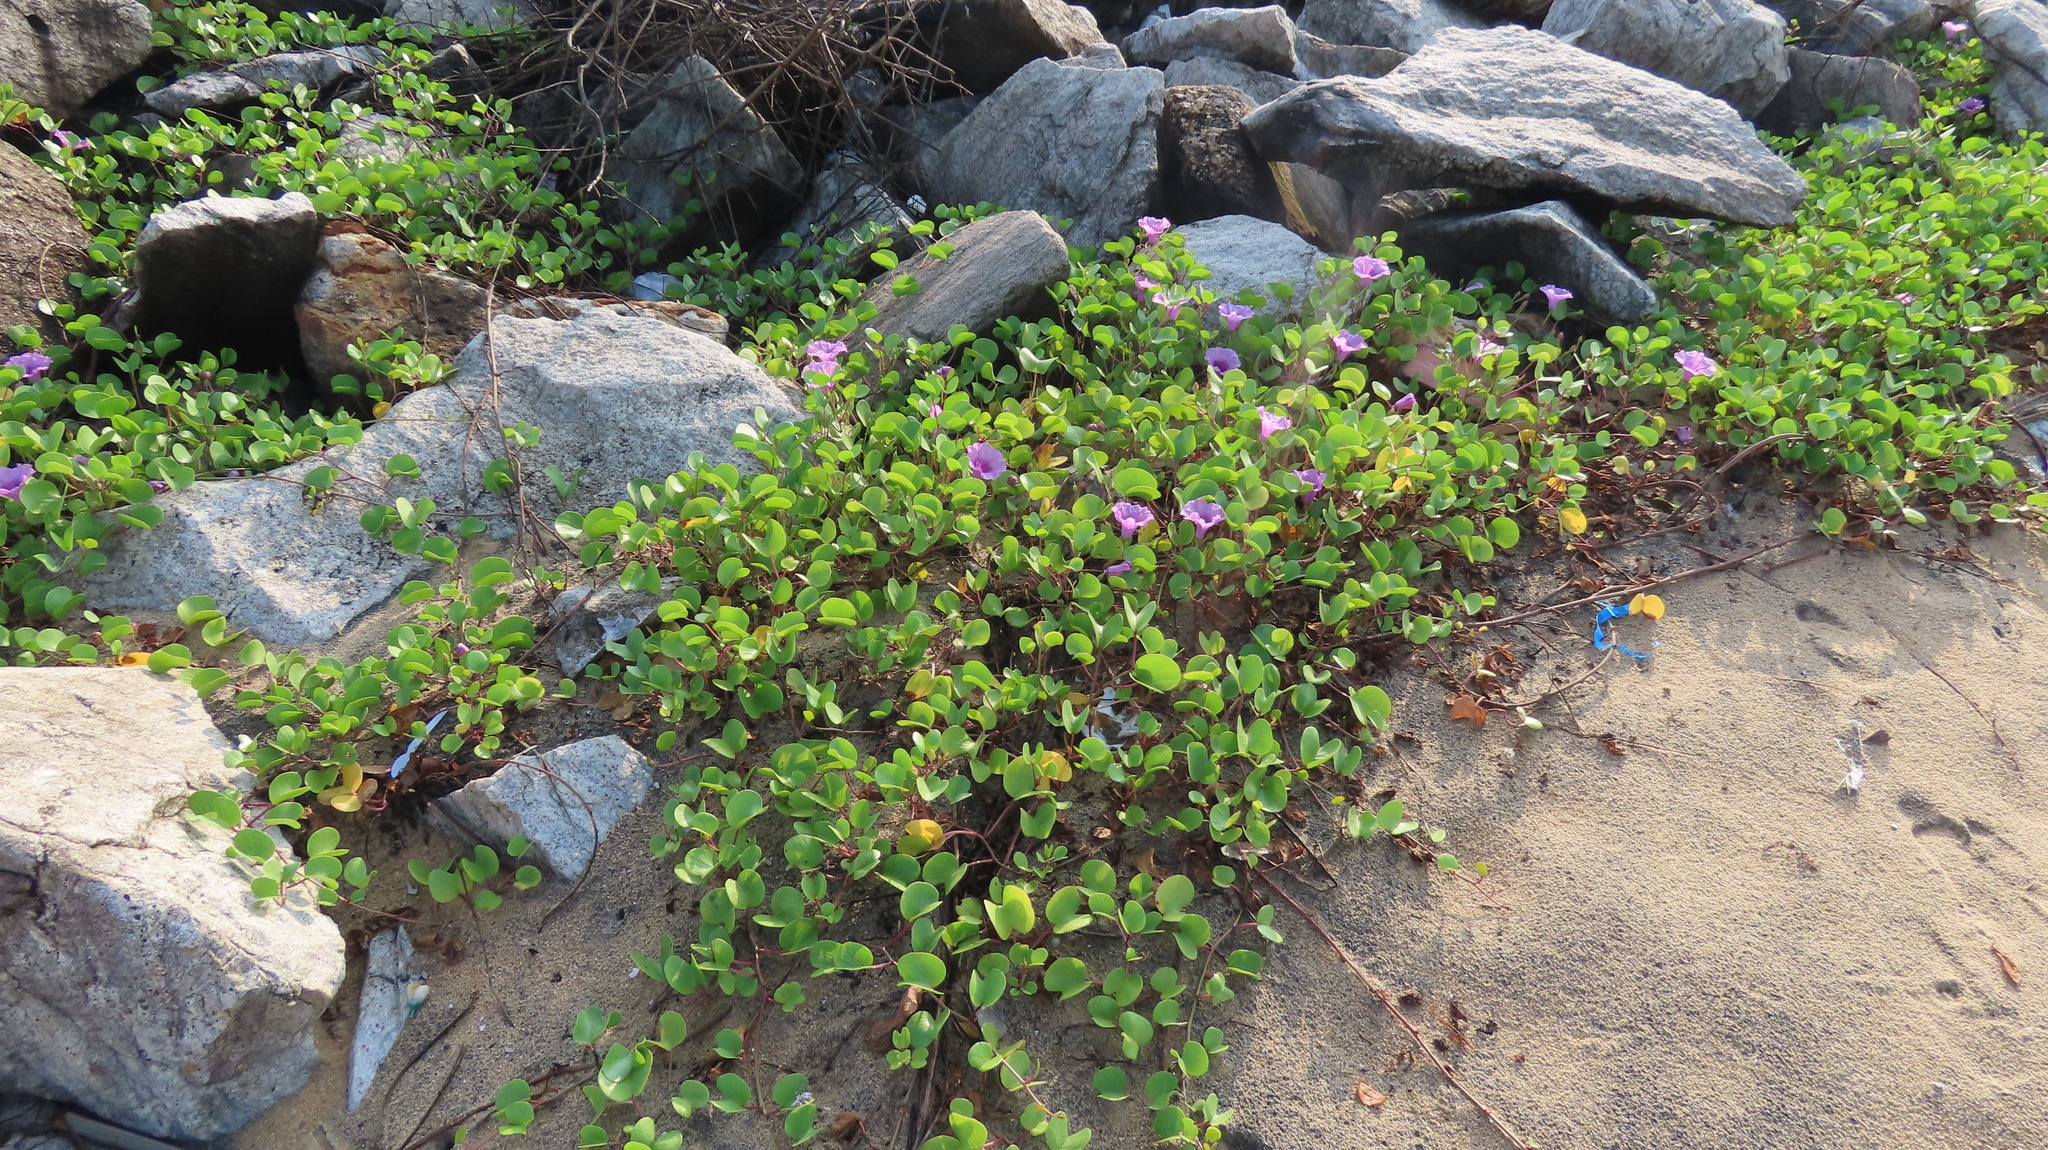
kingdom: Plantae
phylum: Tracheophyta
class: Magnoliopsida
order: Solanales
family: Convolvulaceae
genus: Ipomoea
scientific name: Ipomoea pes-caprae
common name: Beach morning glory
